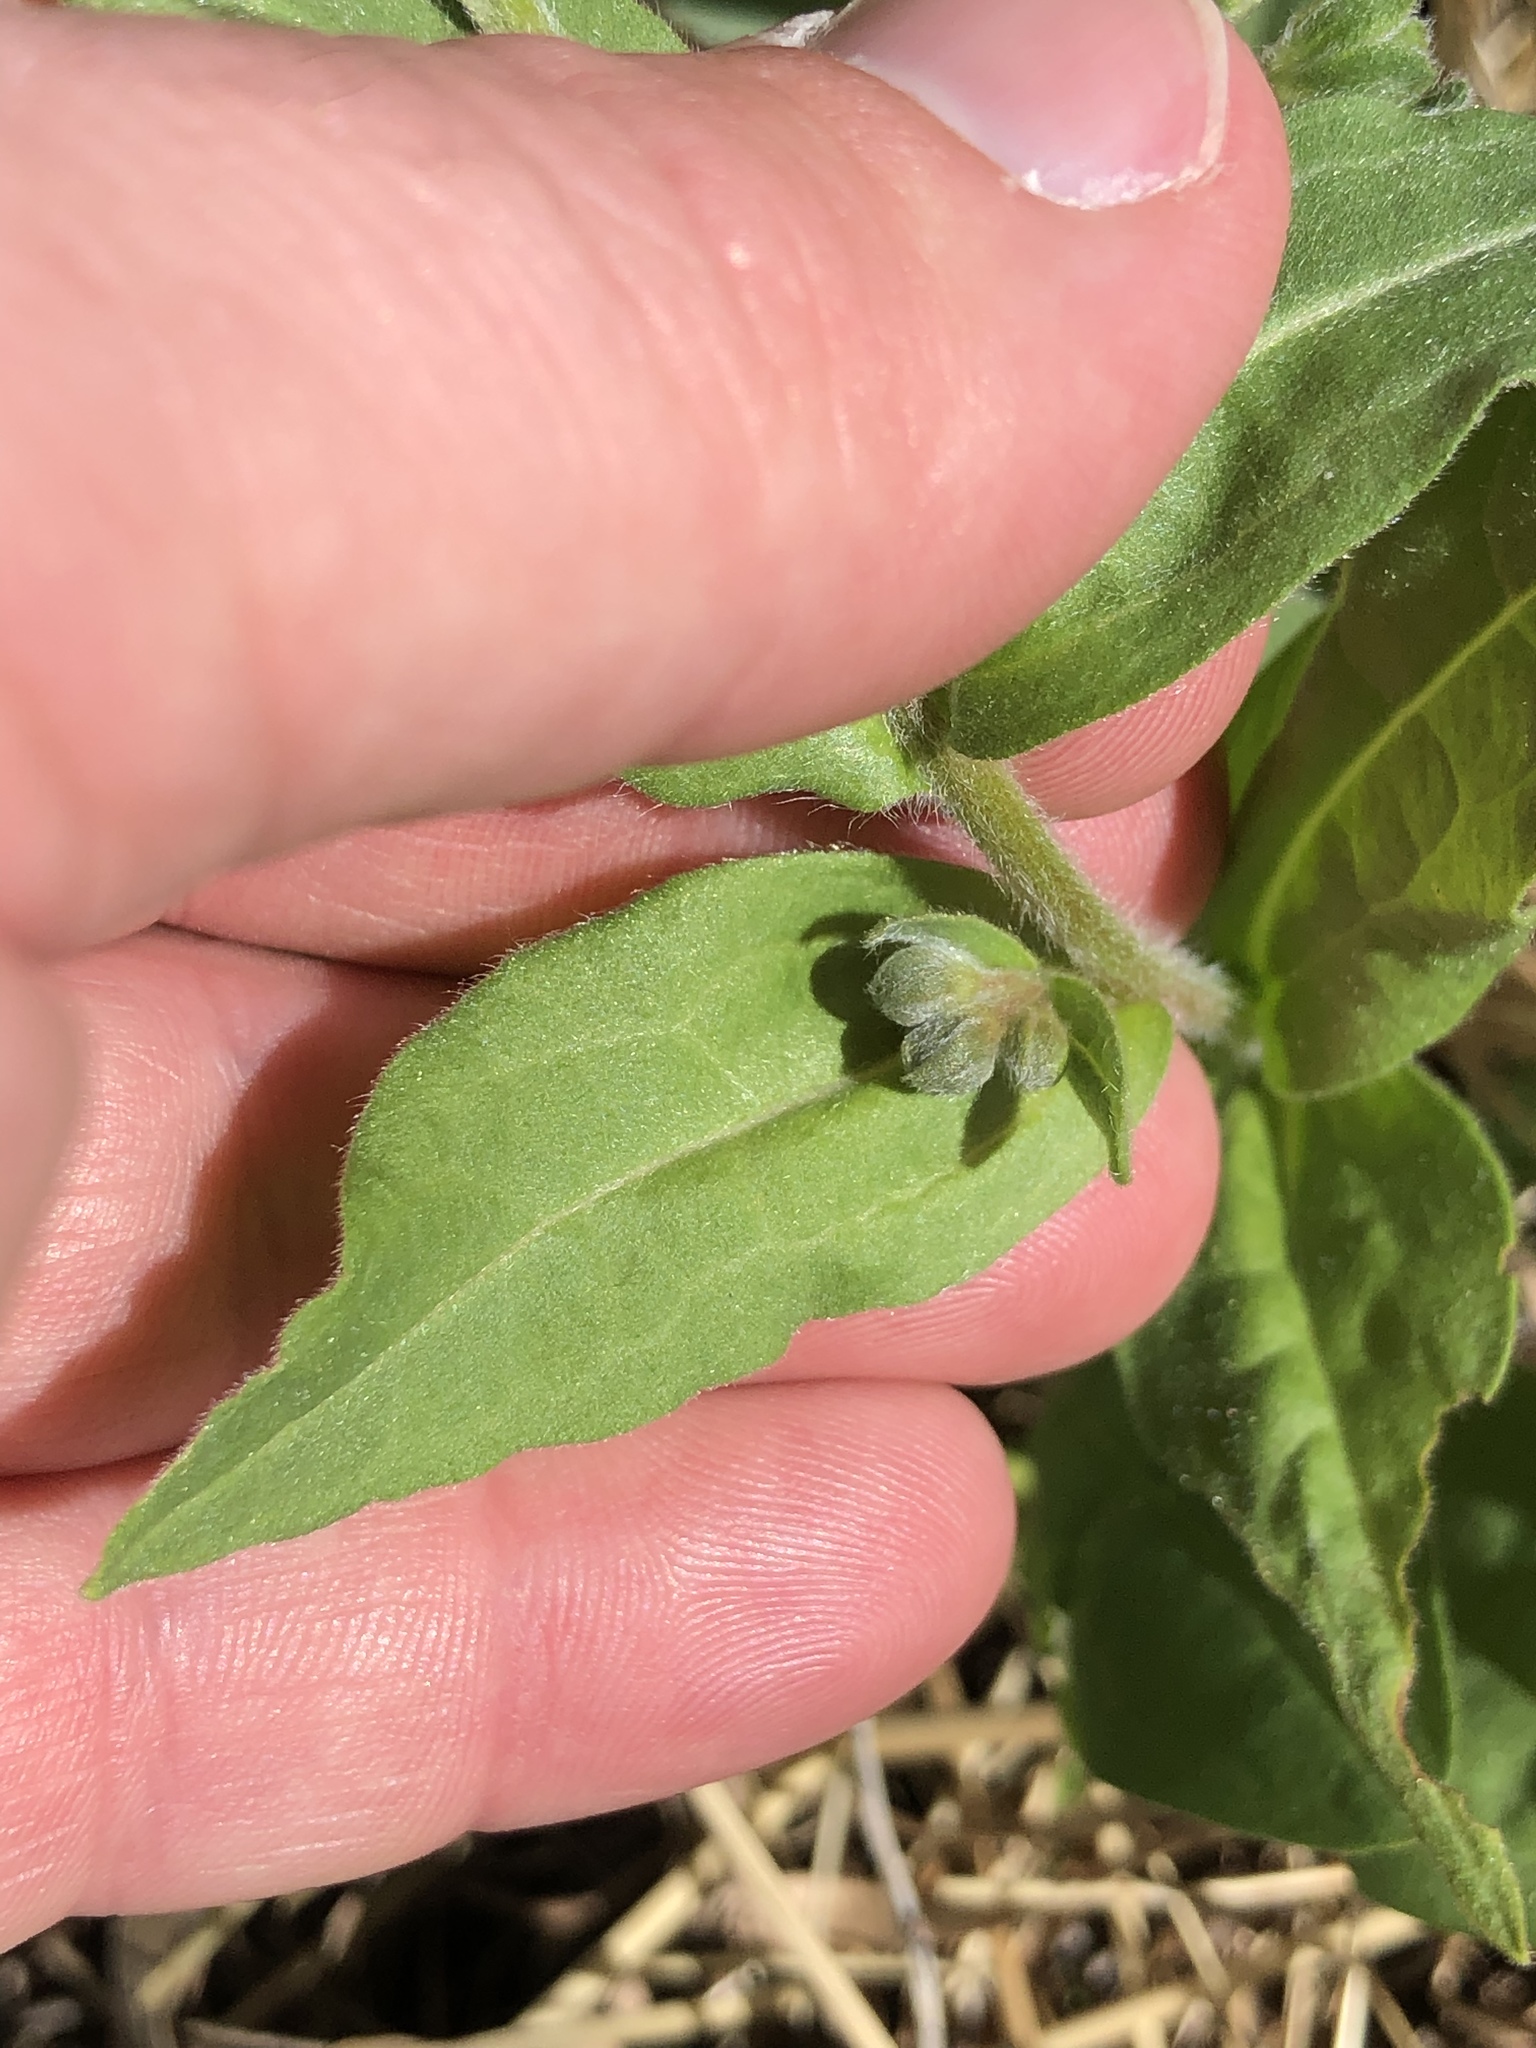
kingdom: Plantae
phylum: Tracheophyta
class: Magnoliopsida
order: Boraginales
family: Boraginaceae
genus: Cynoglossum
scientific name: Cynoglossum officinale
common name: Hound's-tongue
